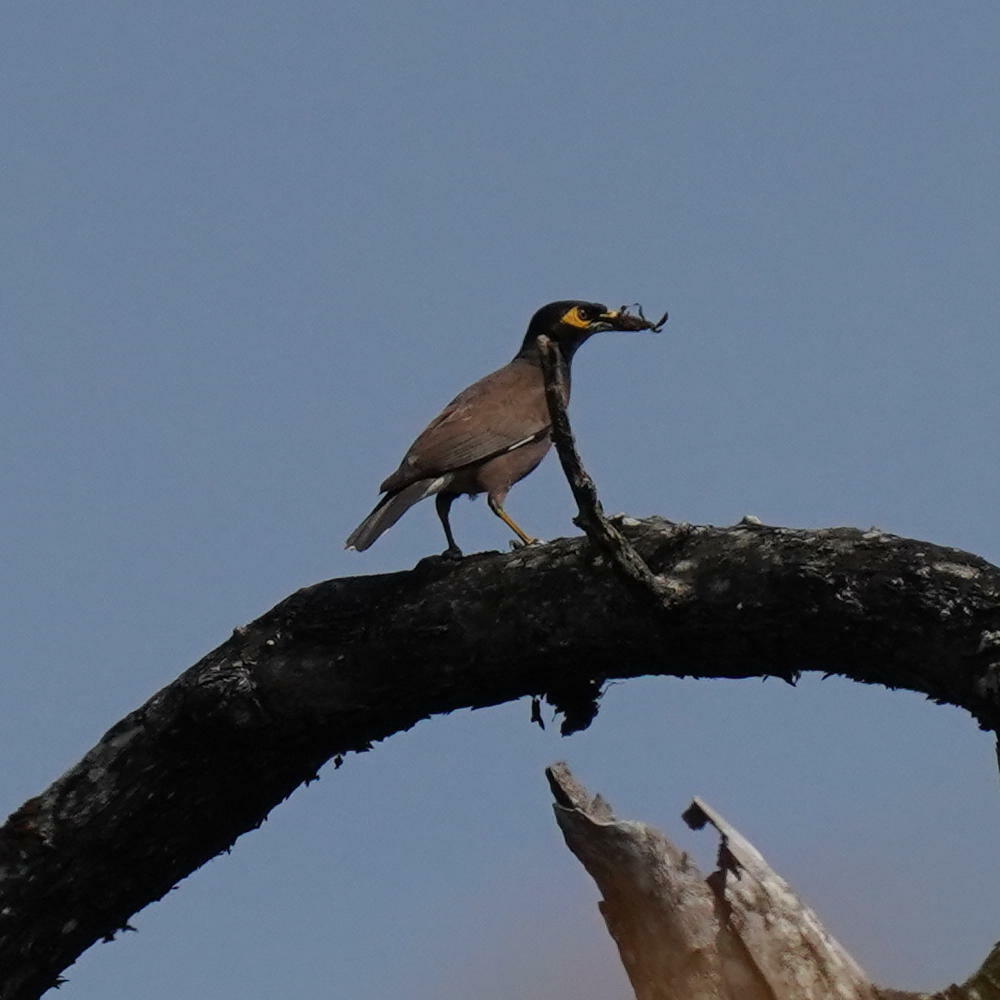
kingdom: Animalia
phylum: Chordata
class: Aves
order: Passeriformes
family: Sturnidae
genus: Acridotheres
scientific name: Acridotheres tristis
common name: Common myna
